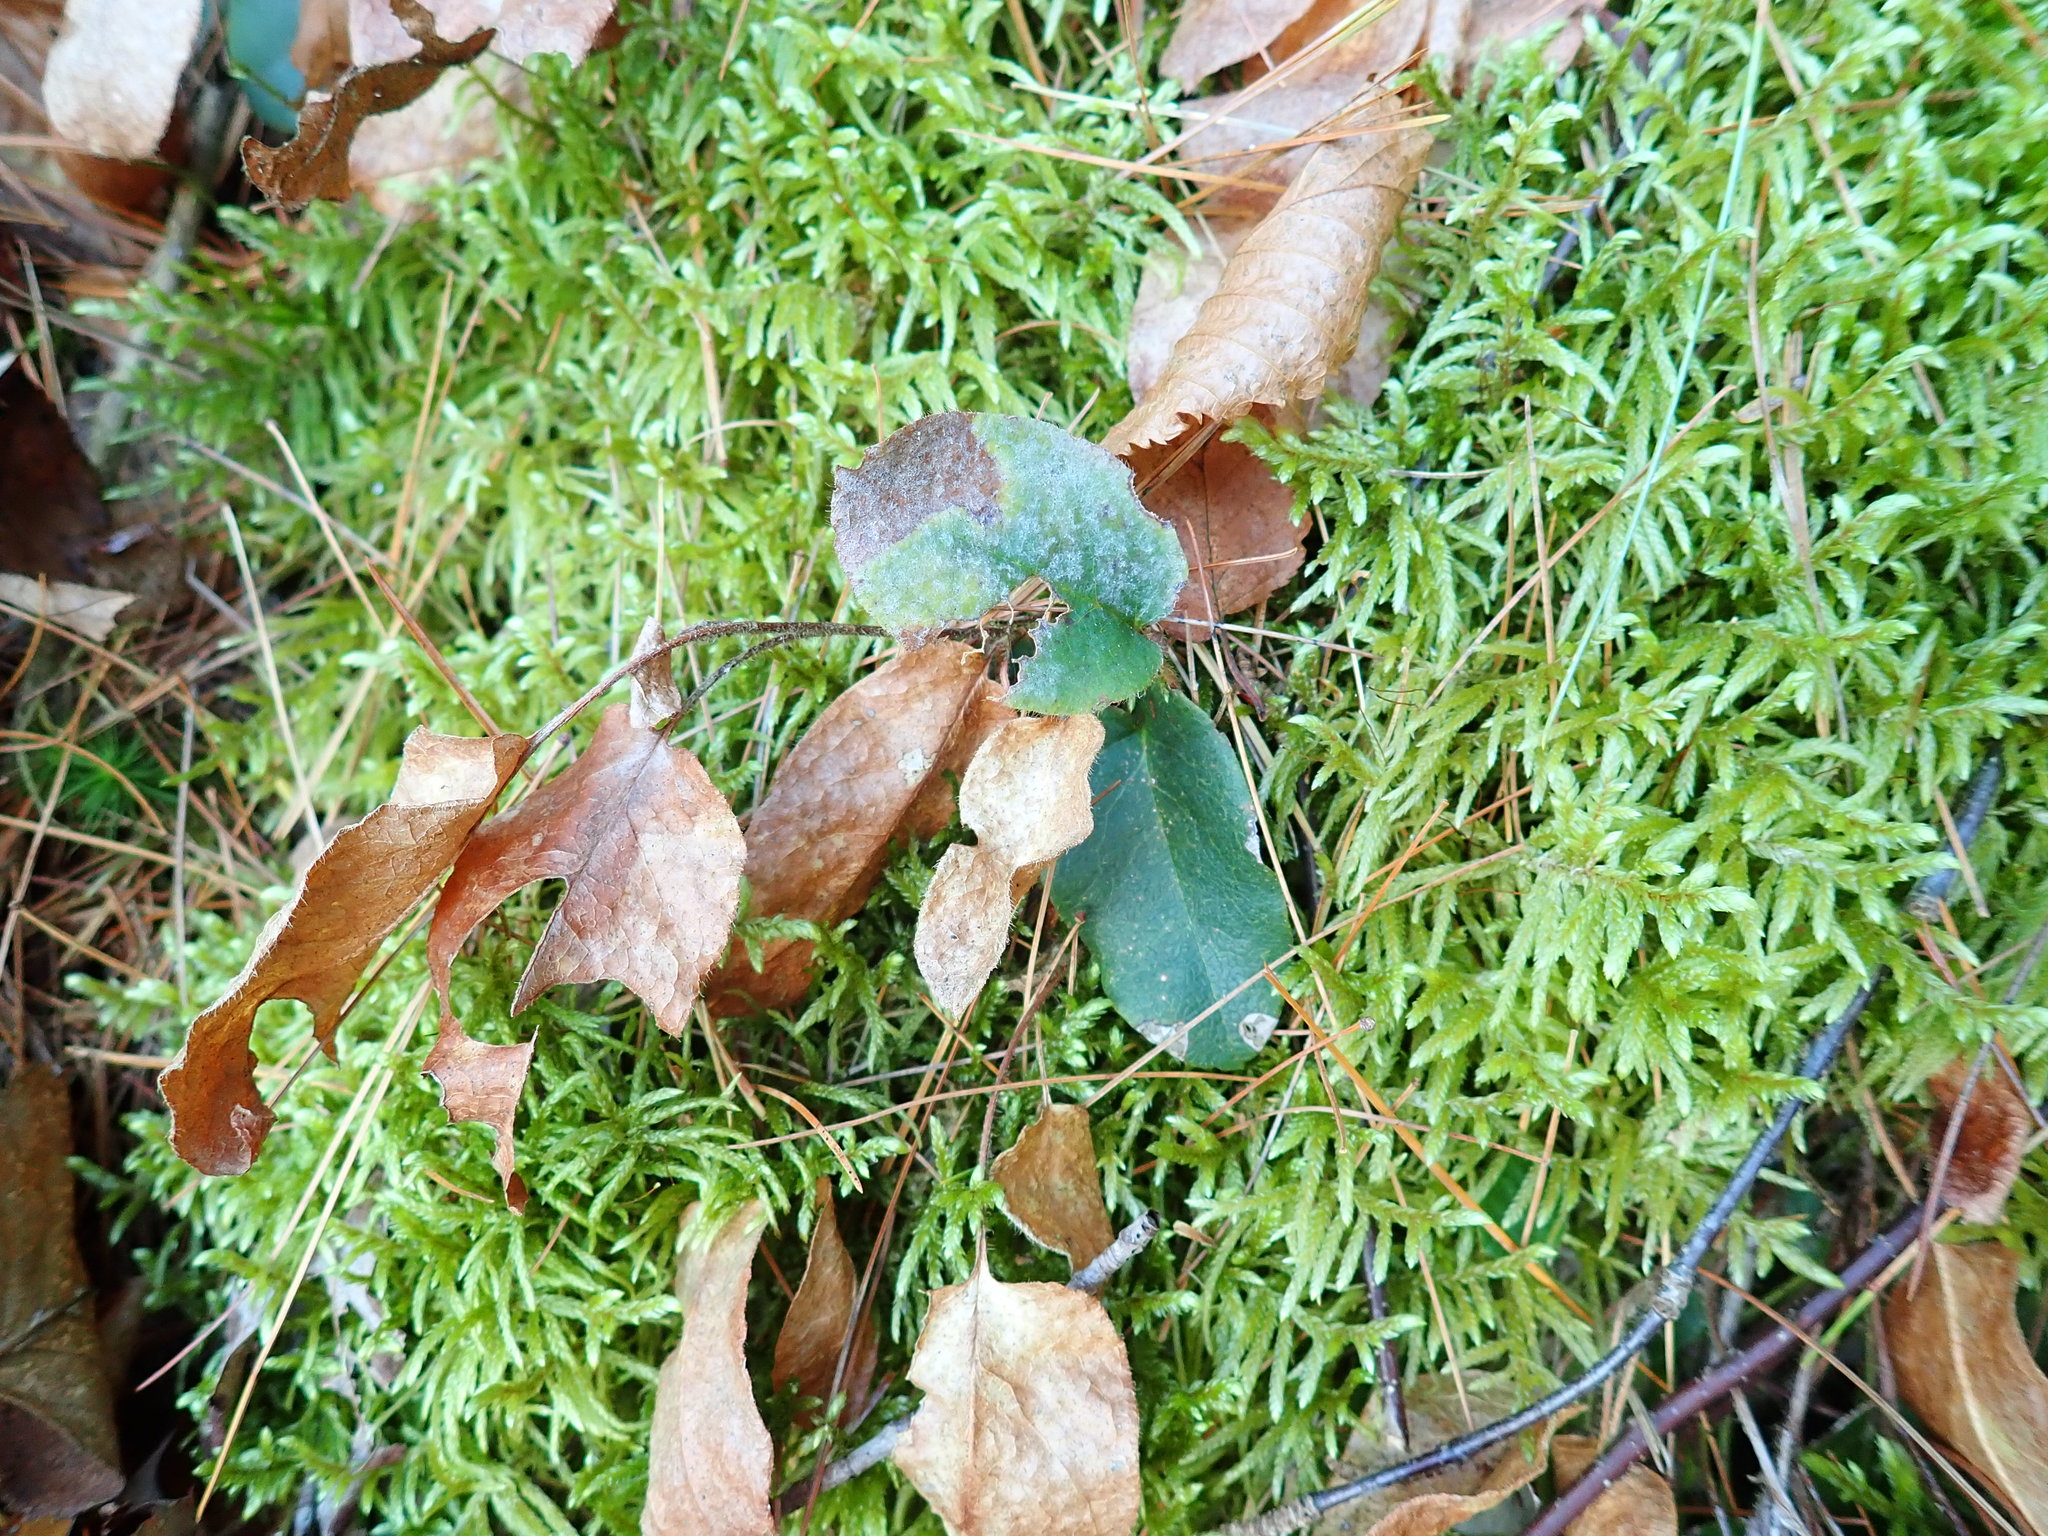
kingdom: Plantae
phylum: Tracheophyta
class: Magnoliopsida
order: Ericales
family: Ericaceae
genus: Epigaea
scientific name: Epigaea repens
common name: Gravelroot
